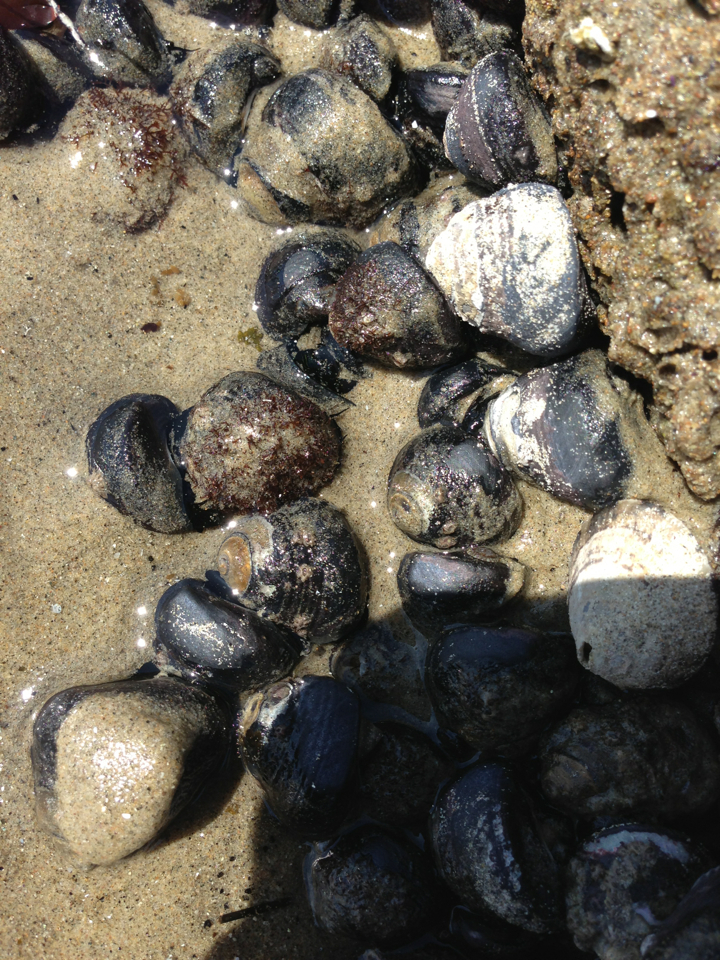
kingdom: Animalia
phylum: Mollusca
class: Gastropoda
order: Trochida
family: Tegulidae
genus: Tegula
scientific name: Tegula funebralis
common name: Black tegula
